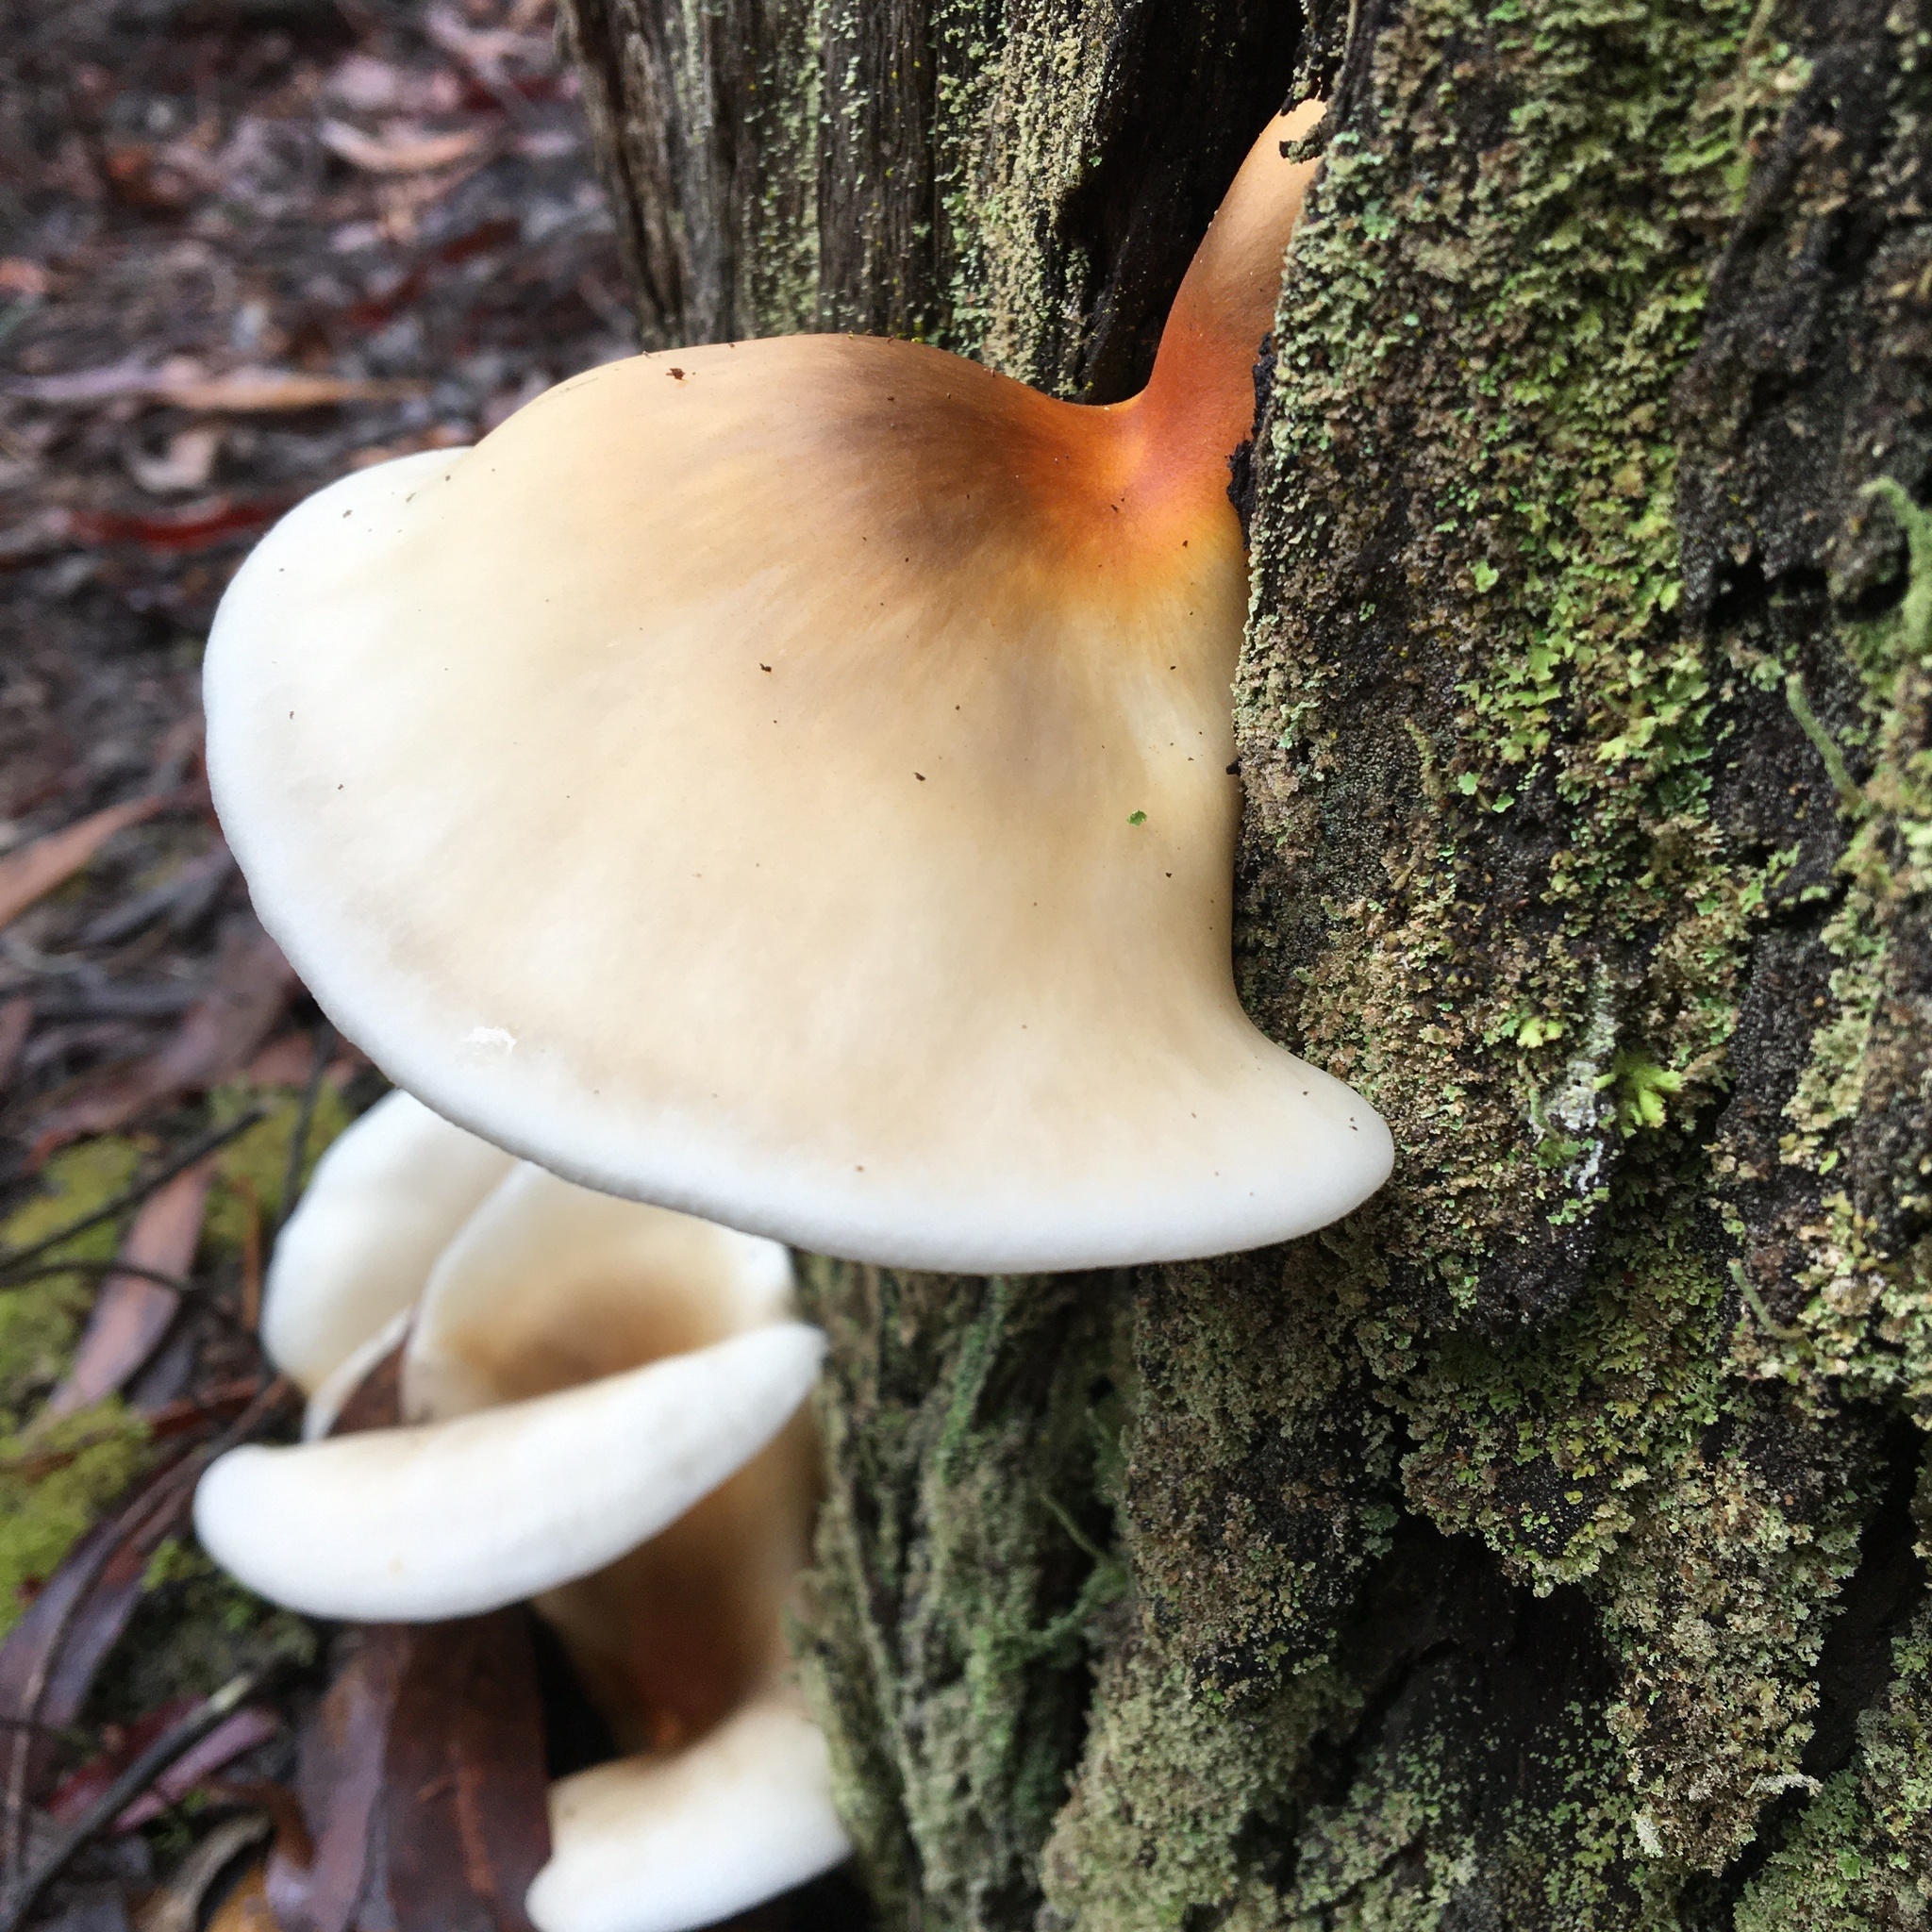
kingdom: Fungi
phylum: Basidiomycota
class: Agaricomycetes
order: Agaricales
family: Omphalotaceae
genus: Omphalotus
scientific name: Omphalotus nidiformis
